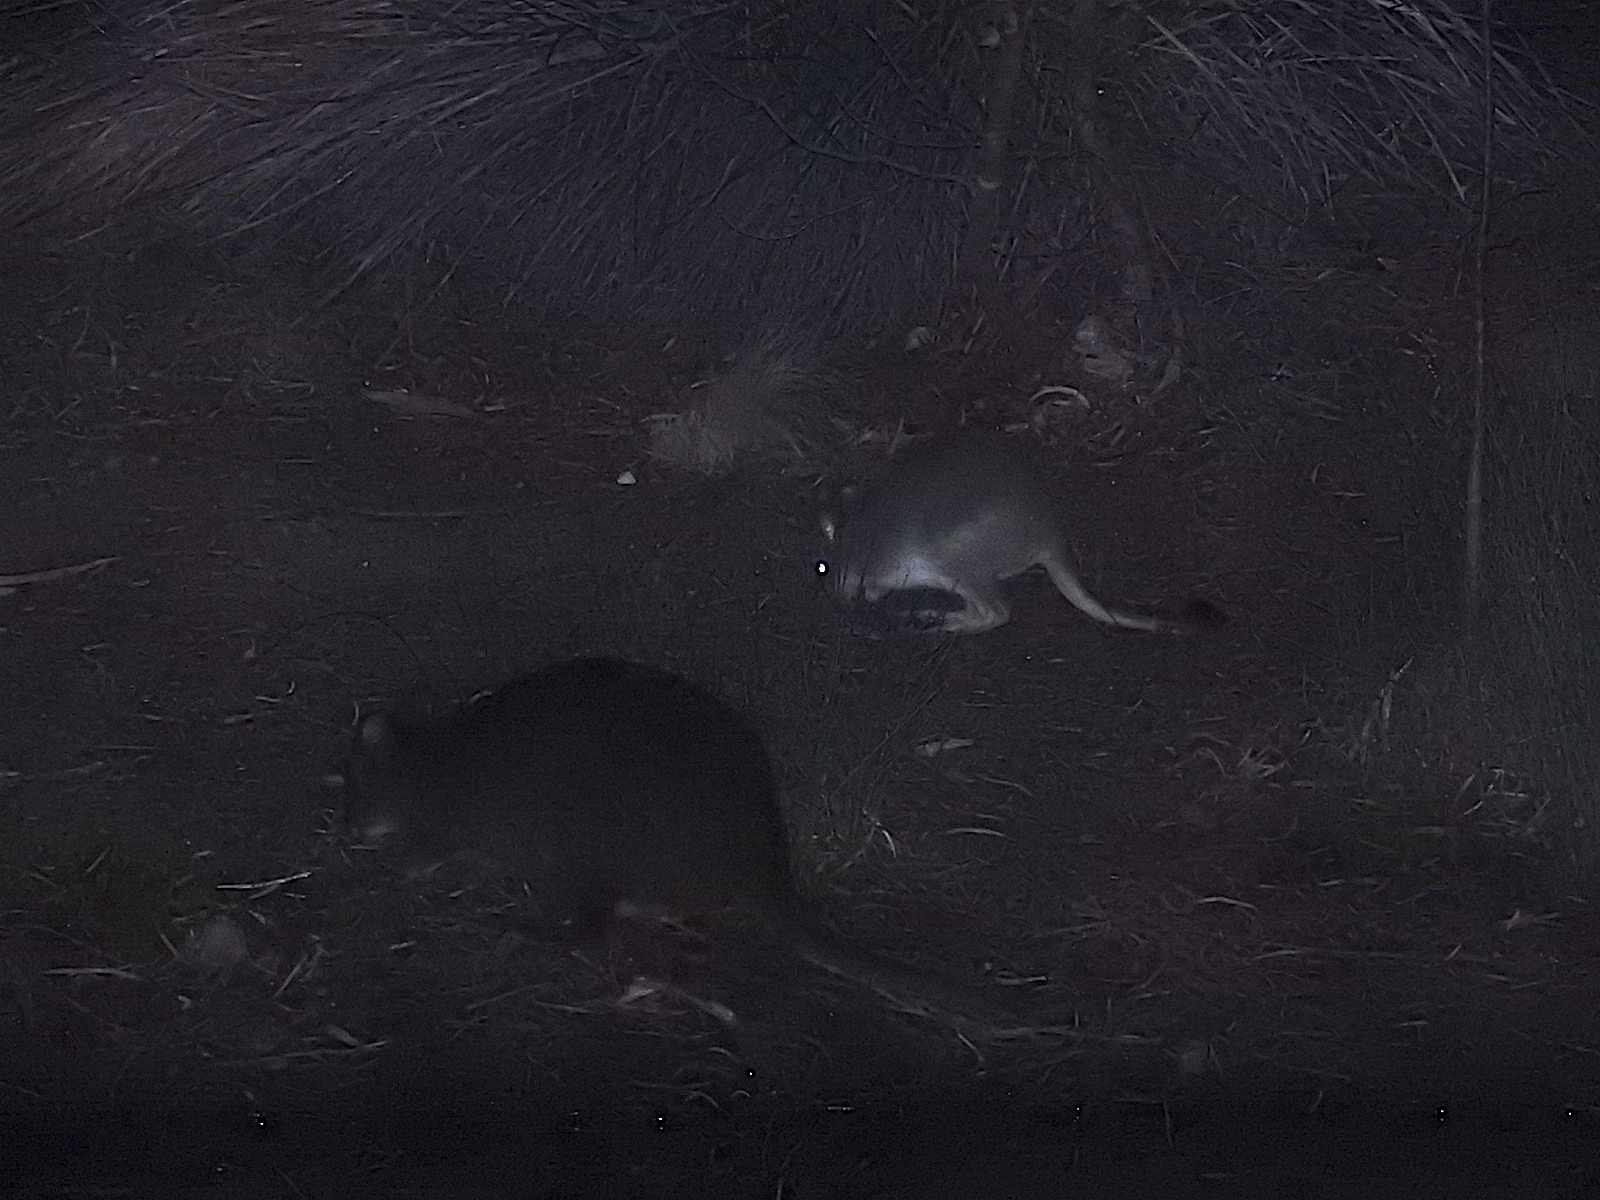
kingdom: Animalia
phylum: Chordata
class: Mammalia
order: Diprotodontia
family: Macropodidae
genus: Thylogale
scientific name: Thylogale billardierii
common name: Tasmanian pademelon
